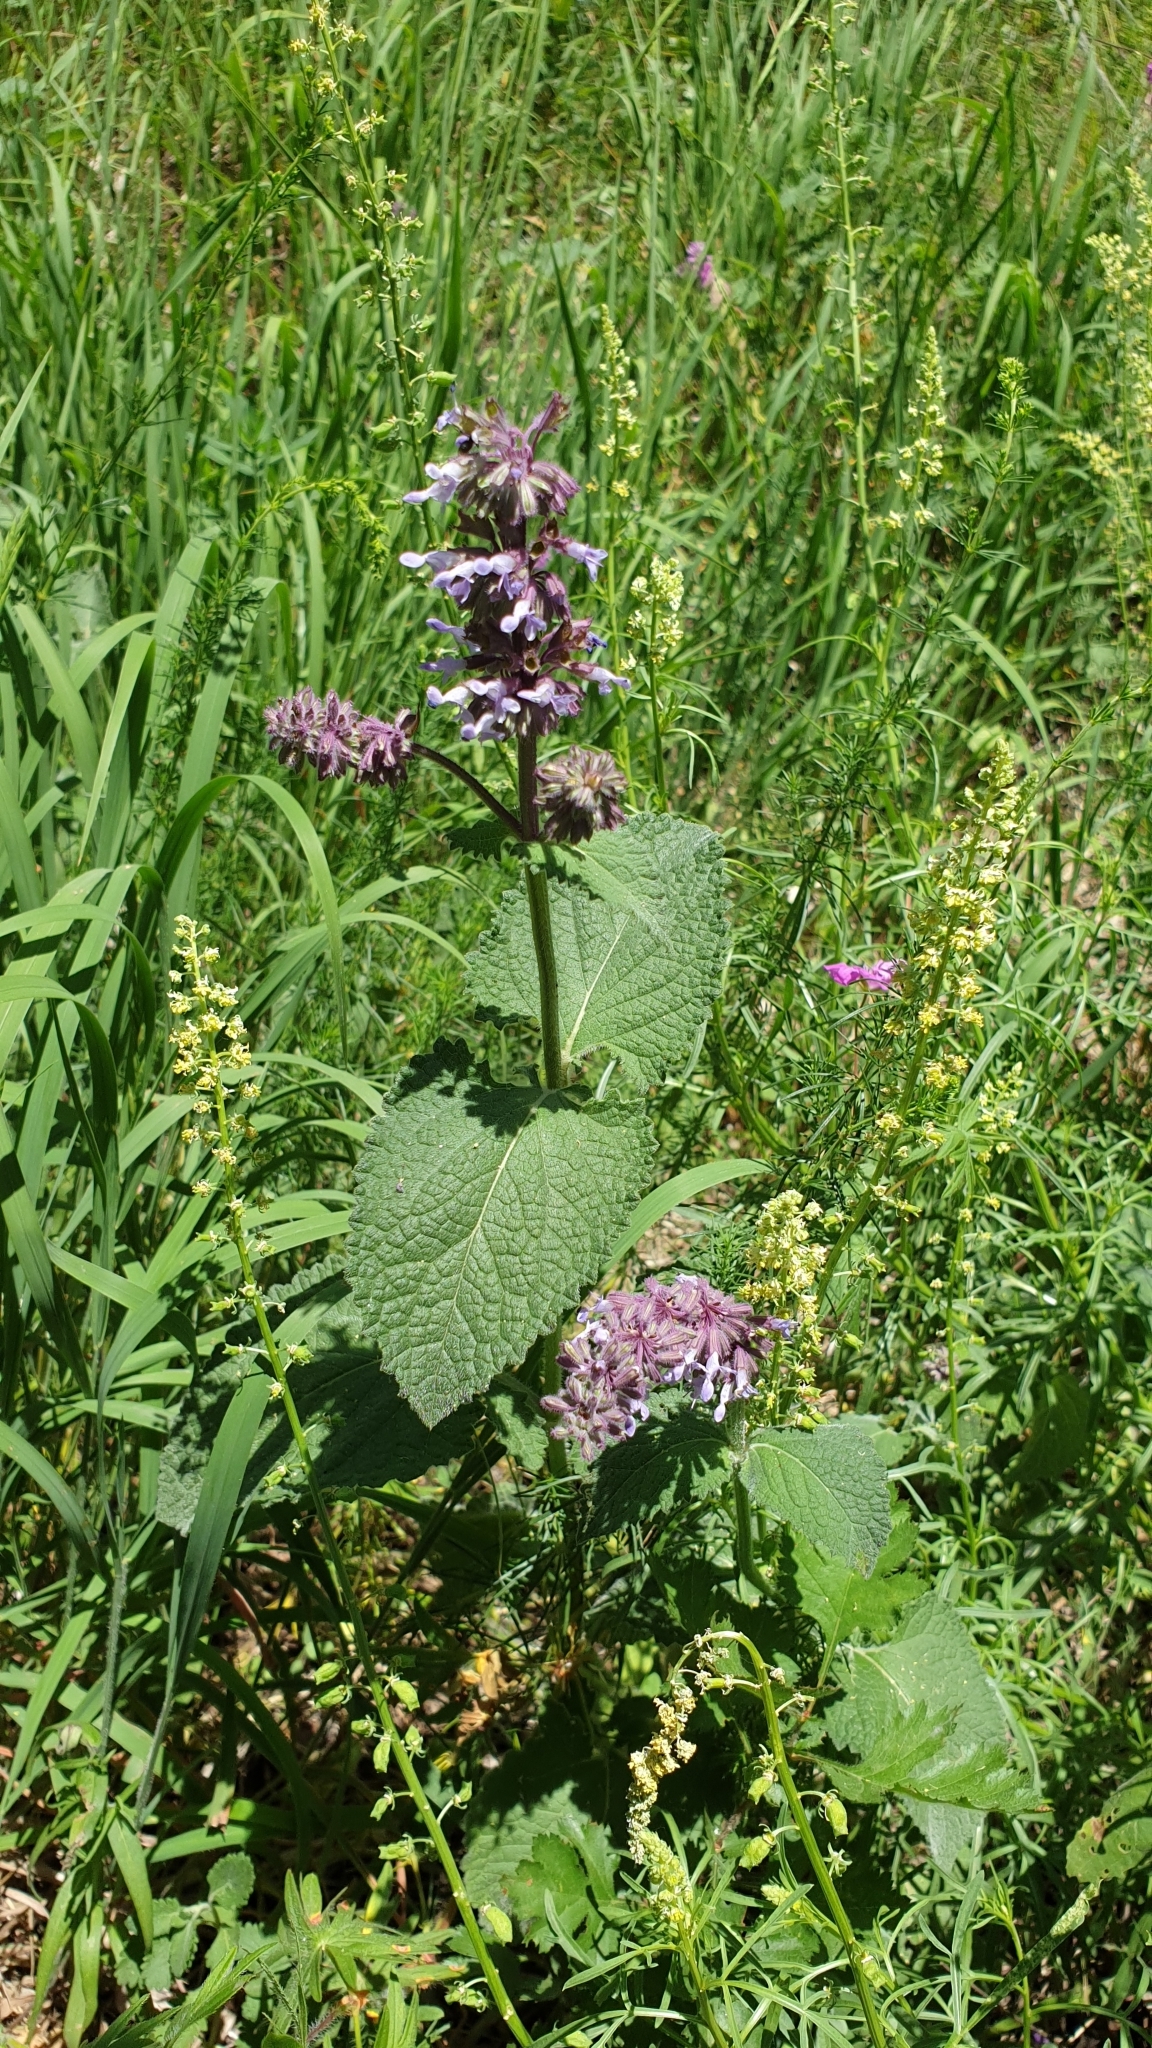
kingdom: Plantae
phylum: Tracheophyta
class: Magnoliopsida
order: Lamiales
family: Lamiaceae
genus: Salvia
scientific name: Salvia verticillata
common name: Whorled clary
